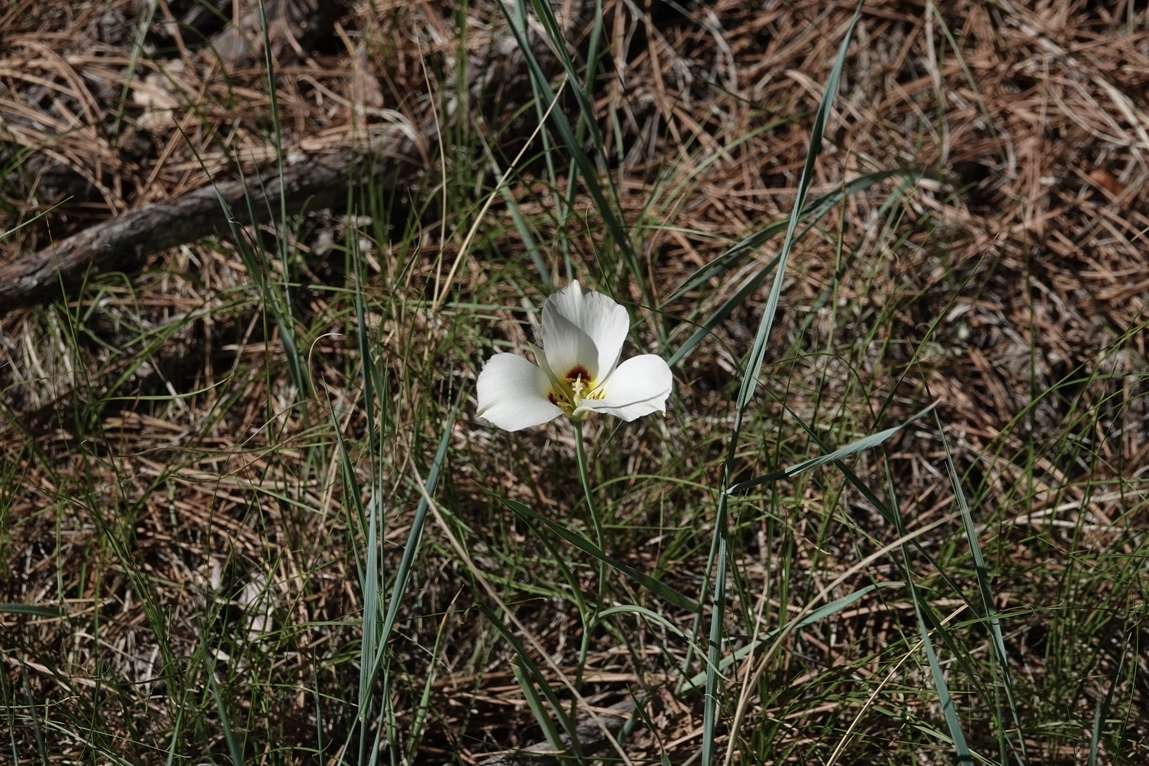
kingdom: Plantae
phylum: Tracheophyta
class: Liliopsida
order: Liliales
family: Liliaceae
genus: Calochortus
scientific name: Calochortus nuttallii
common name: Sego-lily
